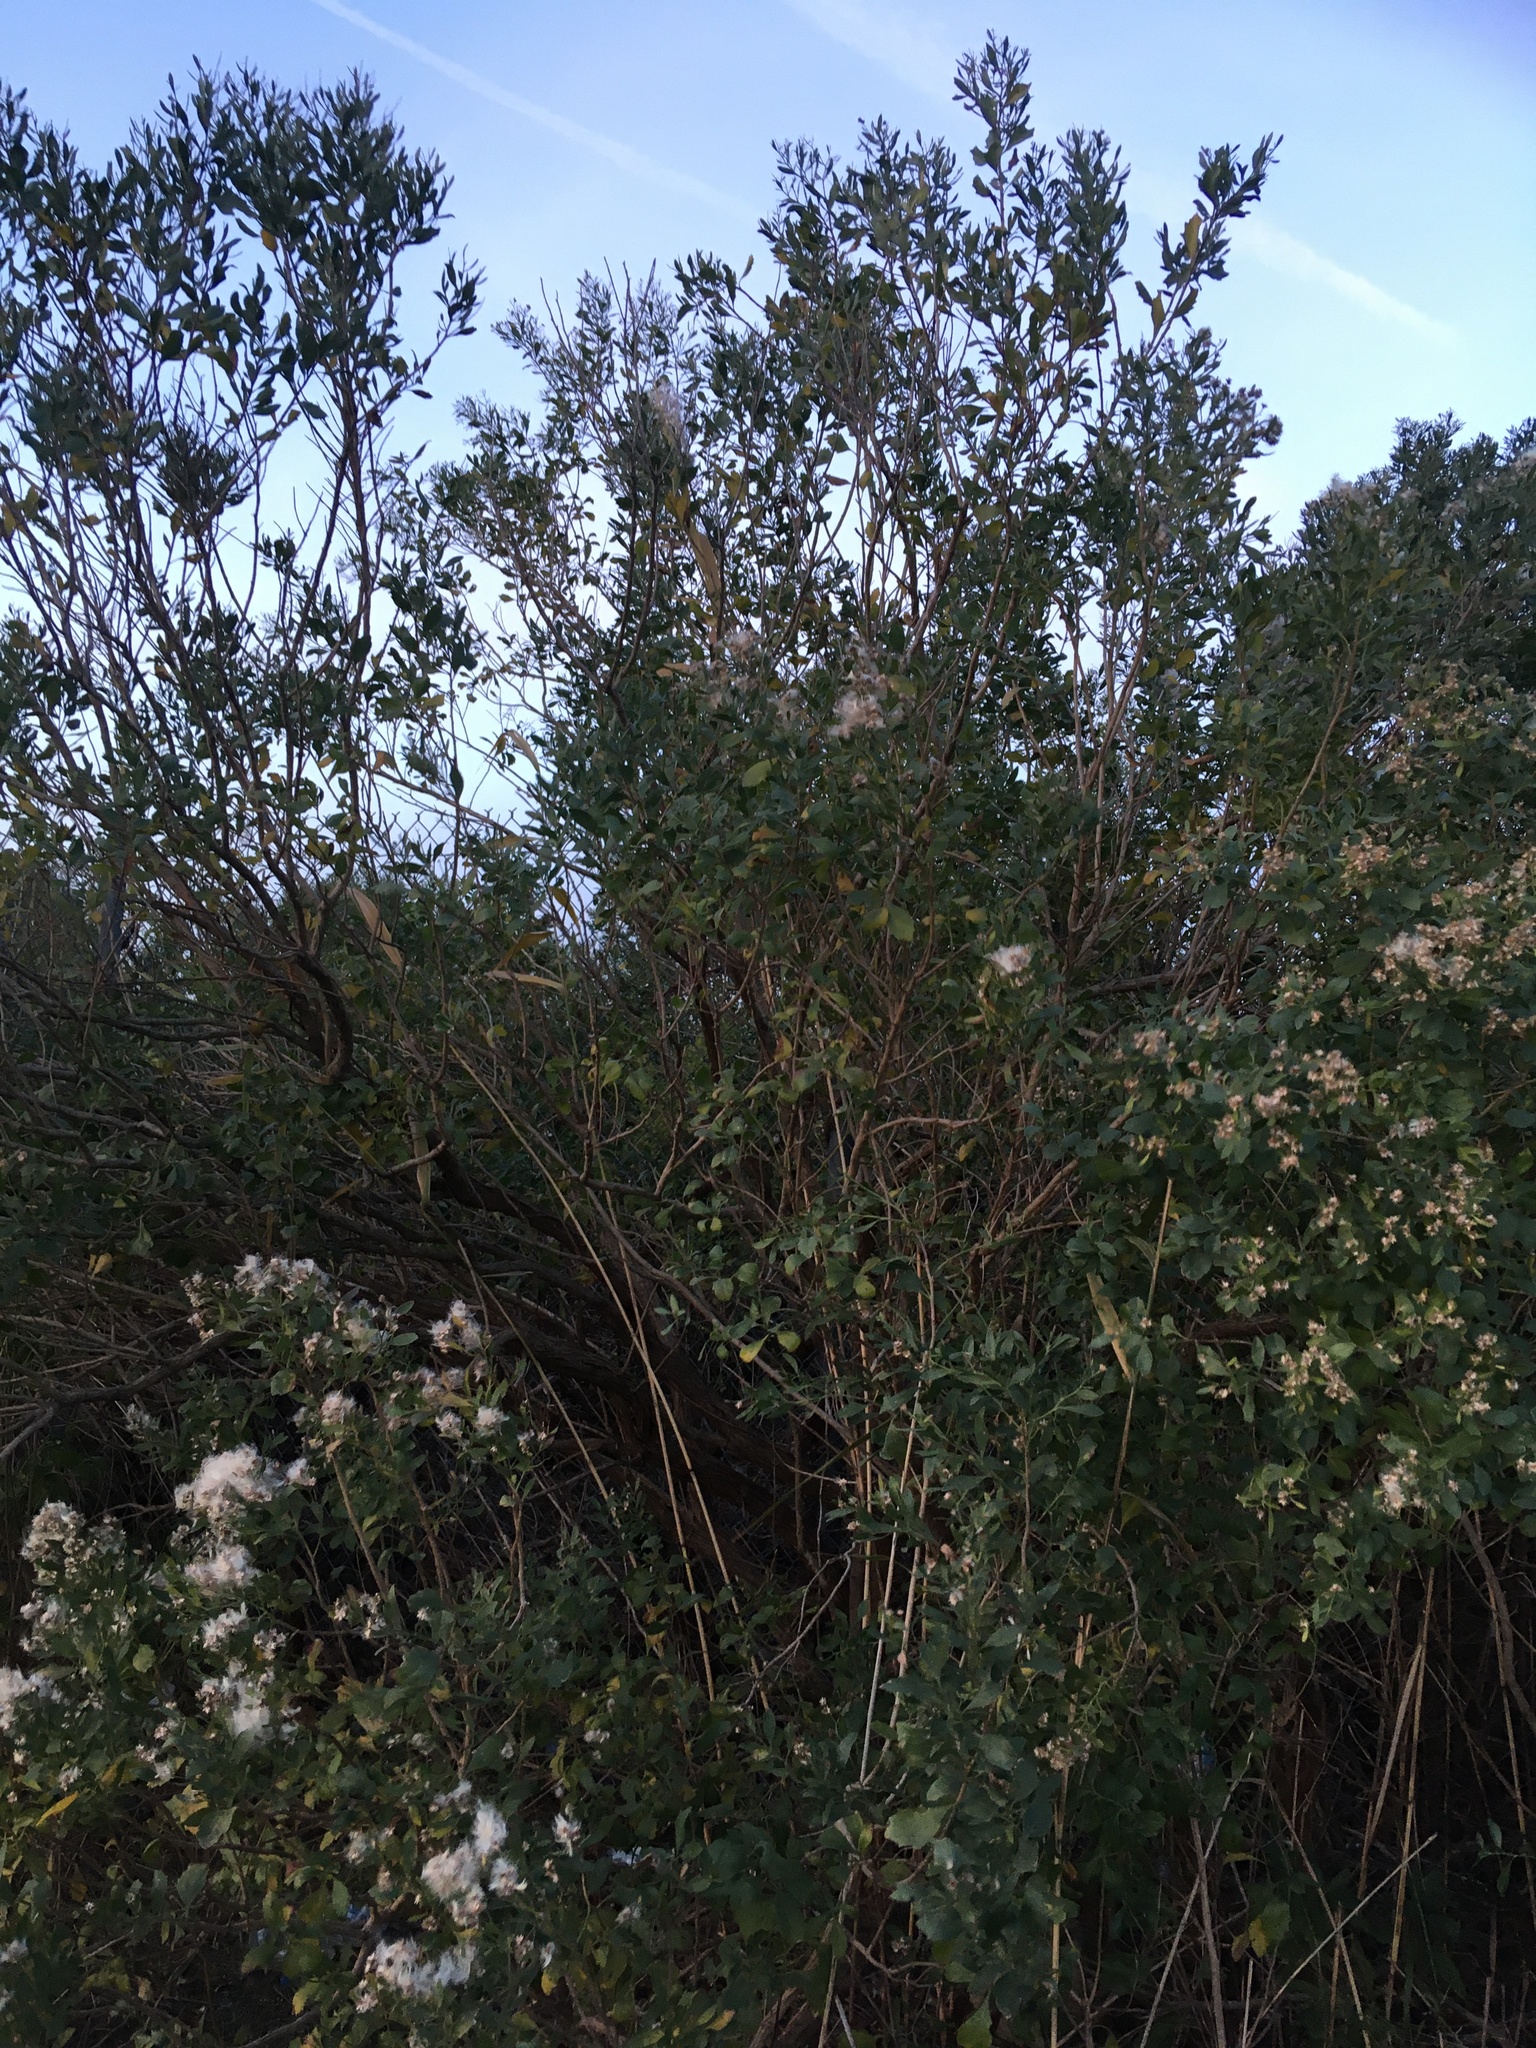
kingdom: Plantae
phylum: Tracheophyta
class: Magnoliopsida
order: Asterales
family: Asteraceae
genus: Baccharis
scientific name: Baccharis halimifolia
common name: Eastern baccharis
